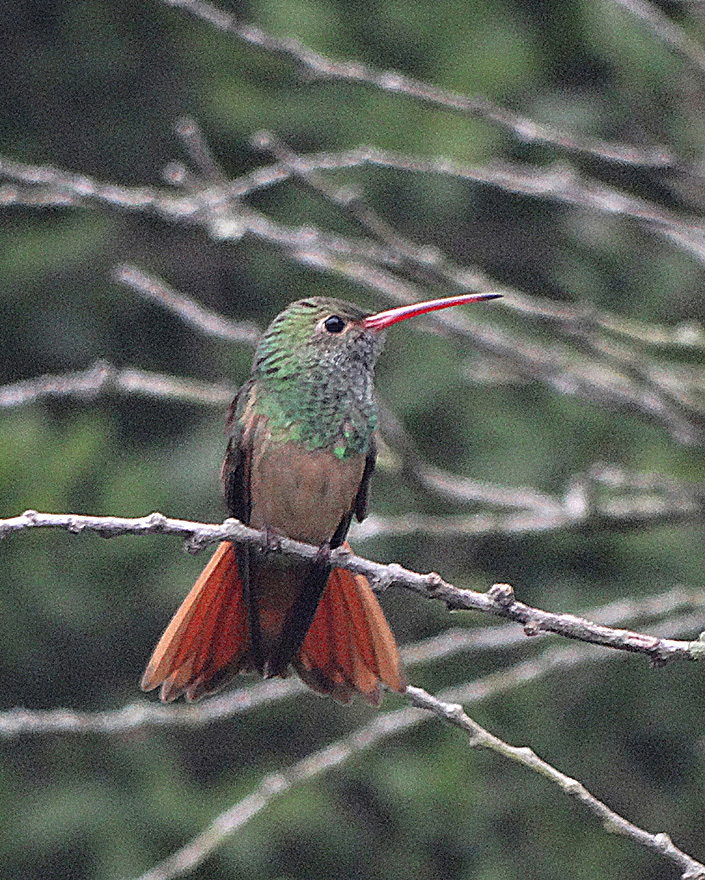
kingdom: Animalia
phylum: Chordata
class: Aves
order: Apodiformes
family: Trochilidae
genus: Amazilia
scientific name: Amazilia yucatanensis
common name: Buff-bellied hummingbird
